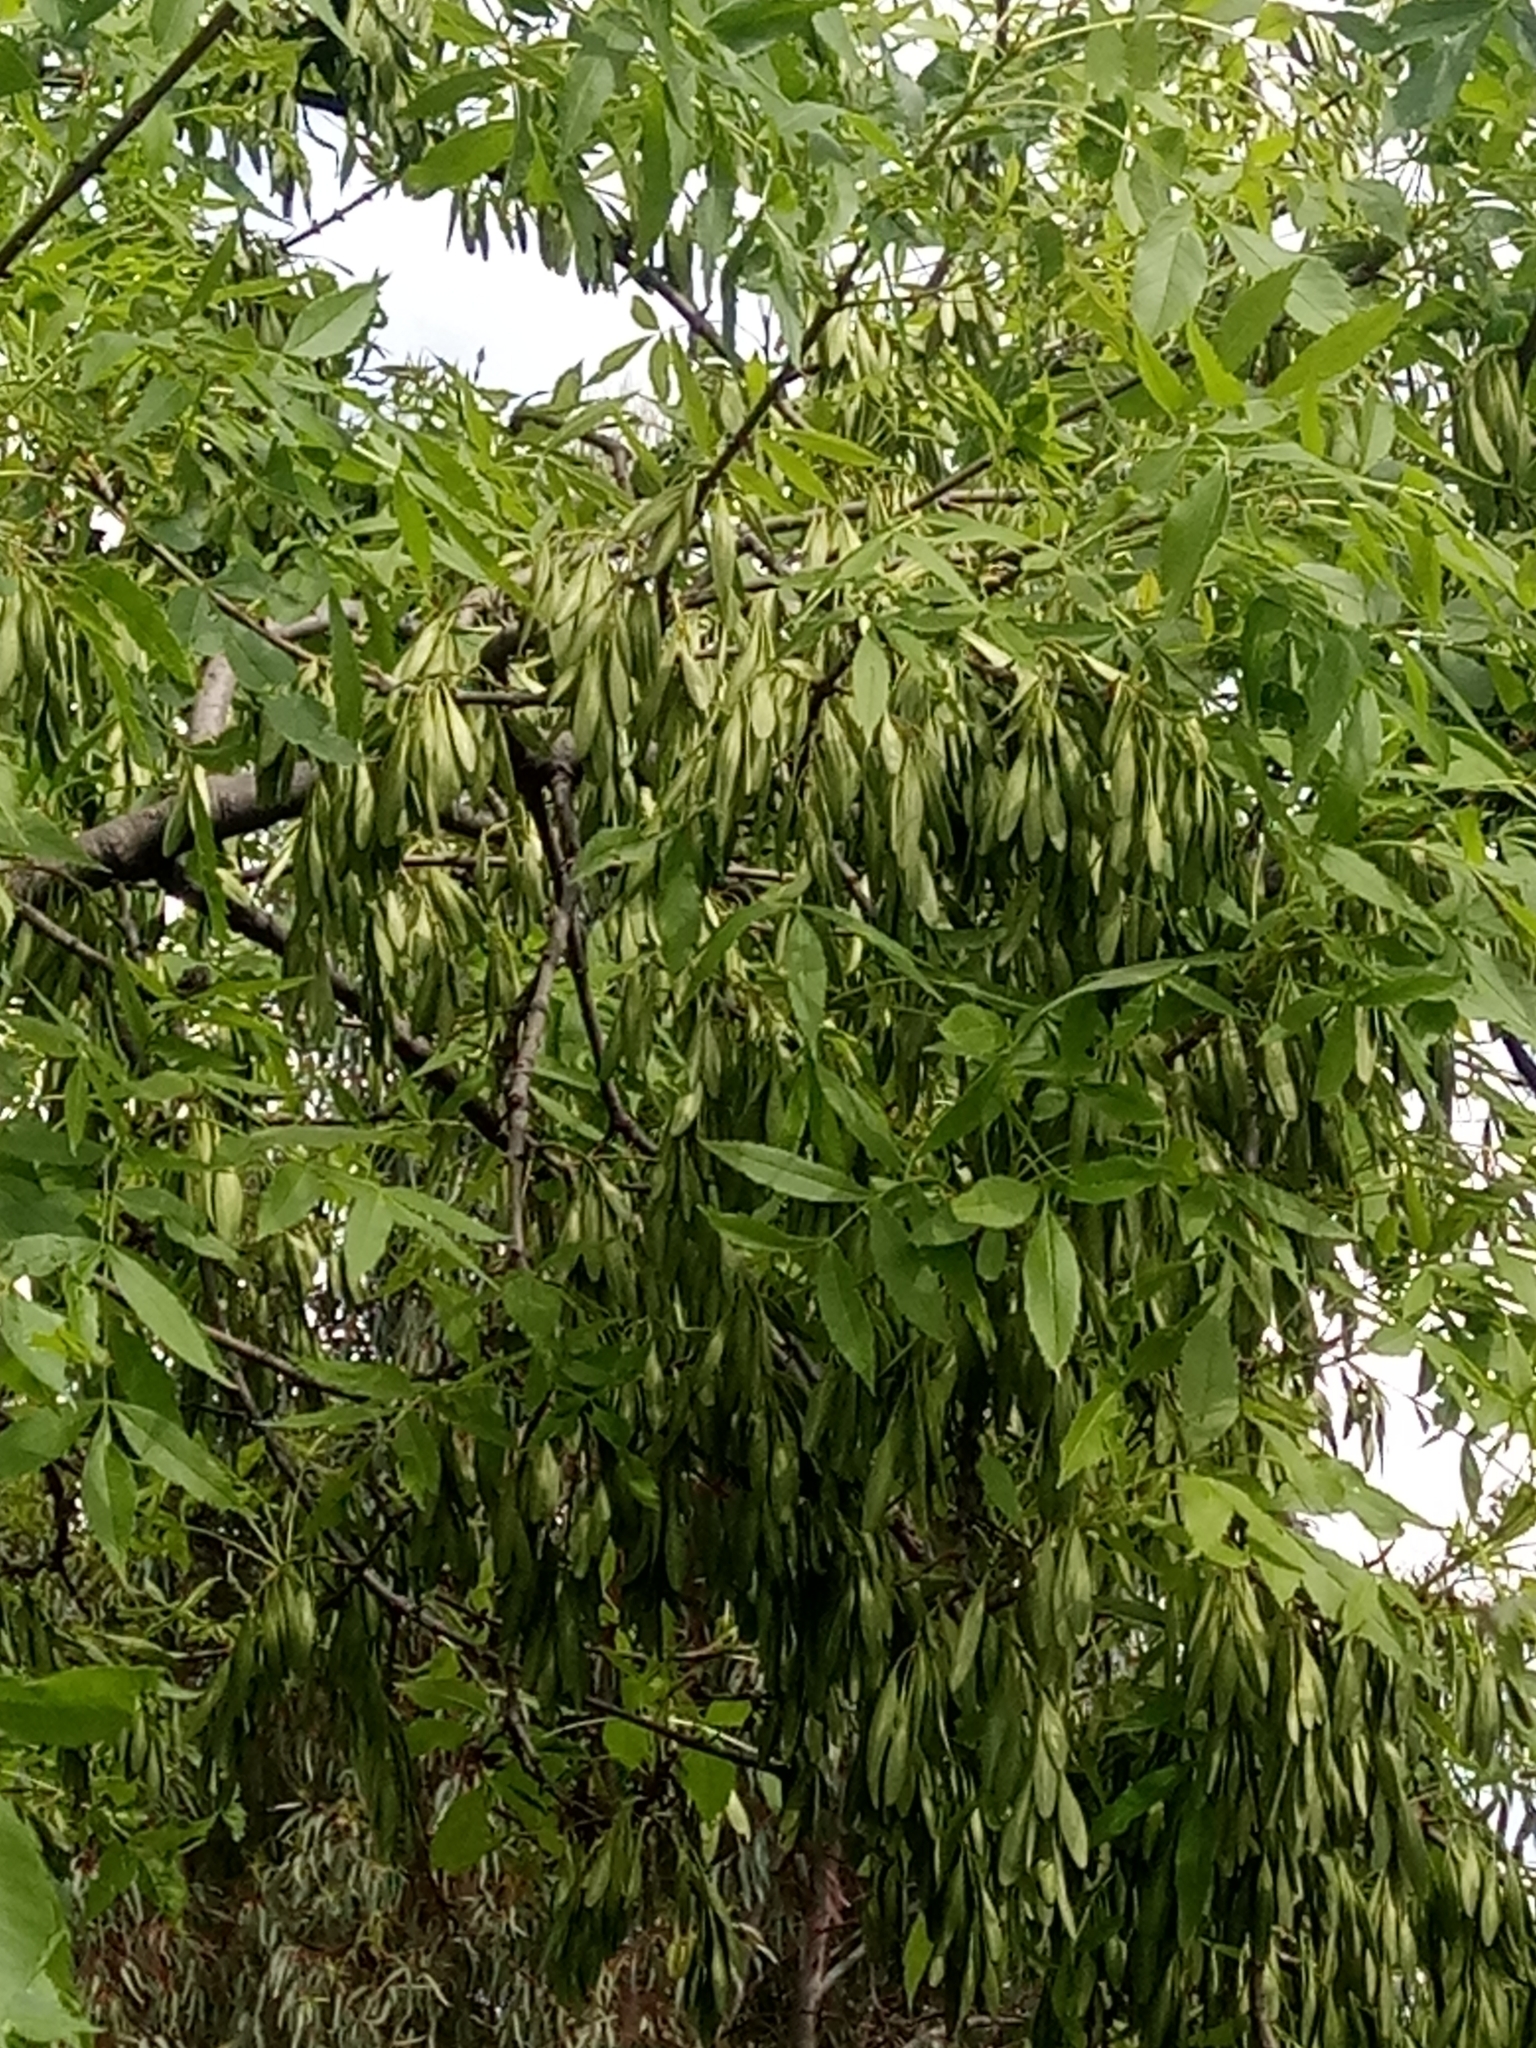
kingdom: Plantae
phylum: Tracheophyta
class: Magnoliopsida
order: Lamiales
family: Oleaceae
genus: Fraxinus
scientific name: Fraxinus angustifolia
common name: Narrow-leafed ash
